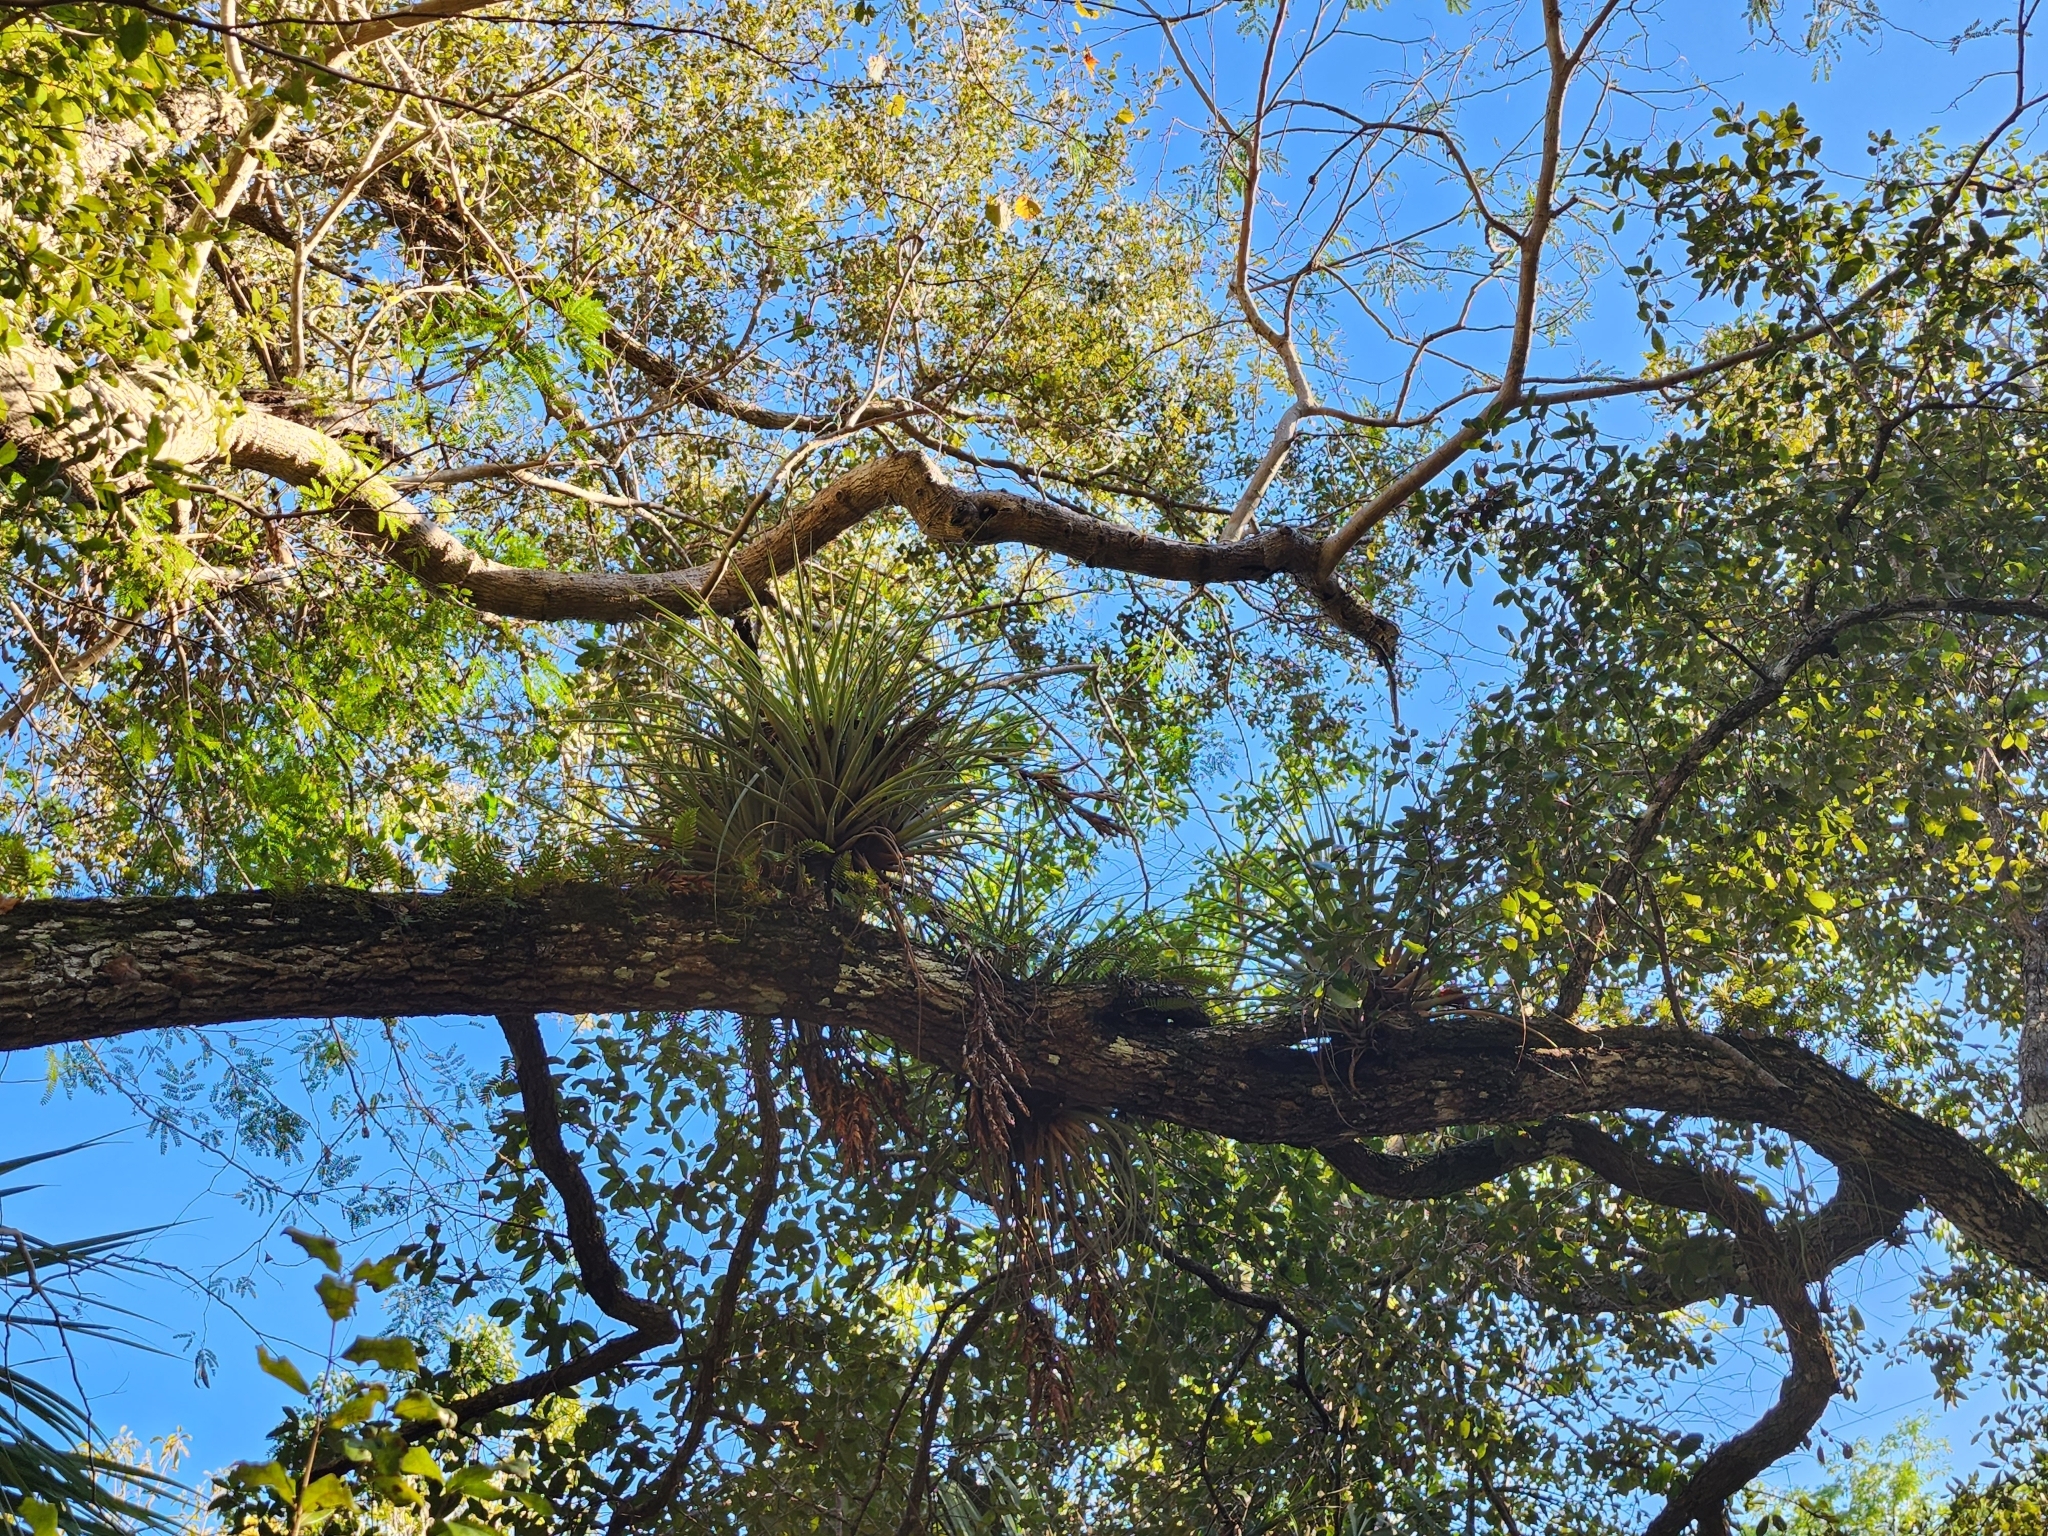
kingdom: Plantae
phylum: Tracheophyta
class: Liliopsida
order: Poales
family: Bromeliaceae
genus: Tillandsia
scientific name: Tillandsia fasciculata
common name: Giant airplant
